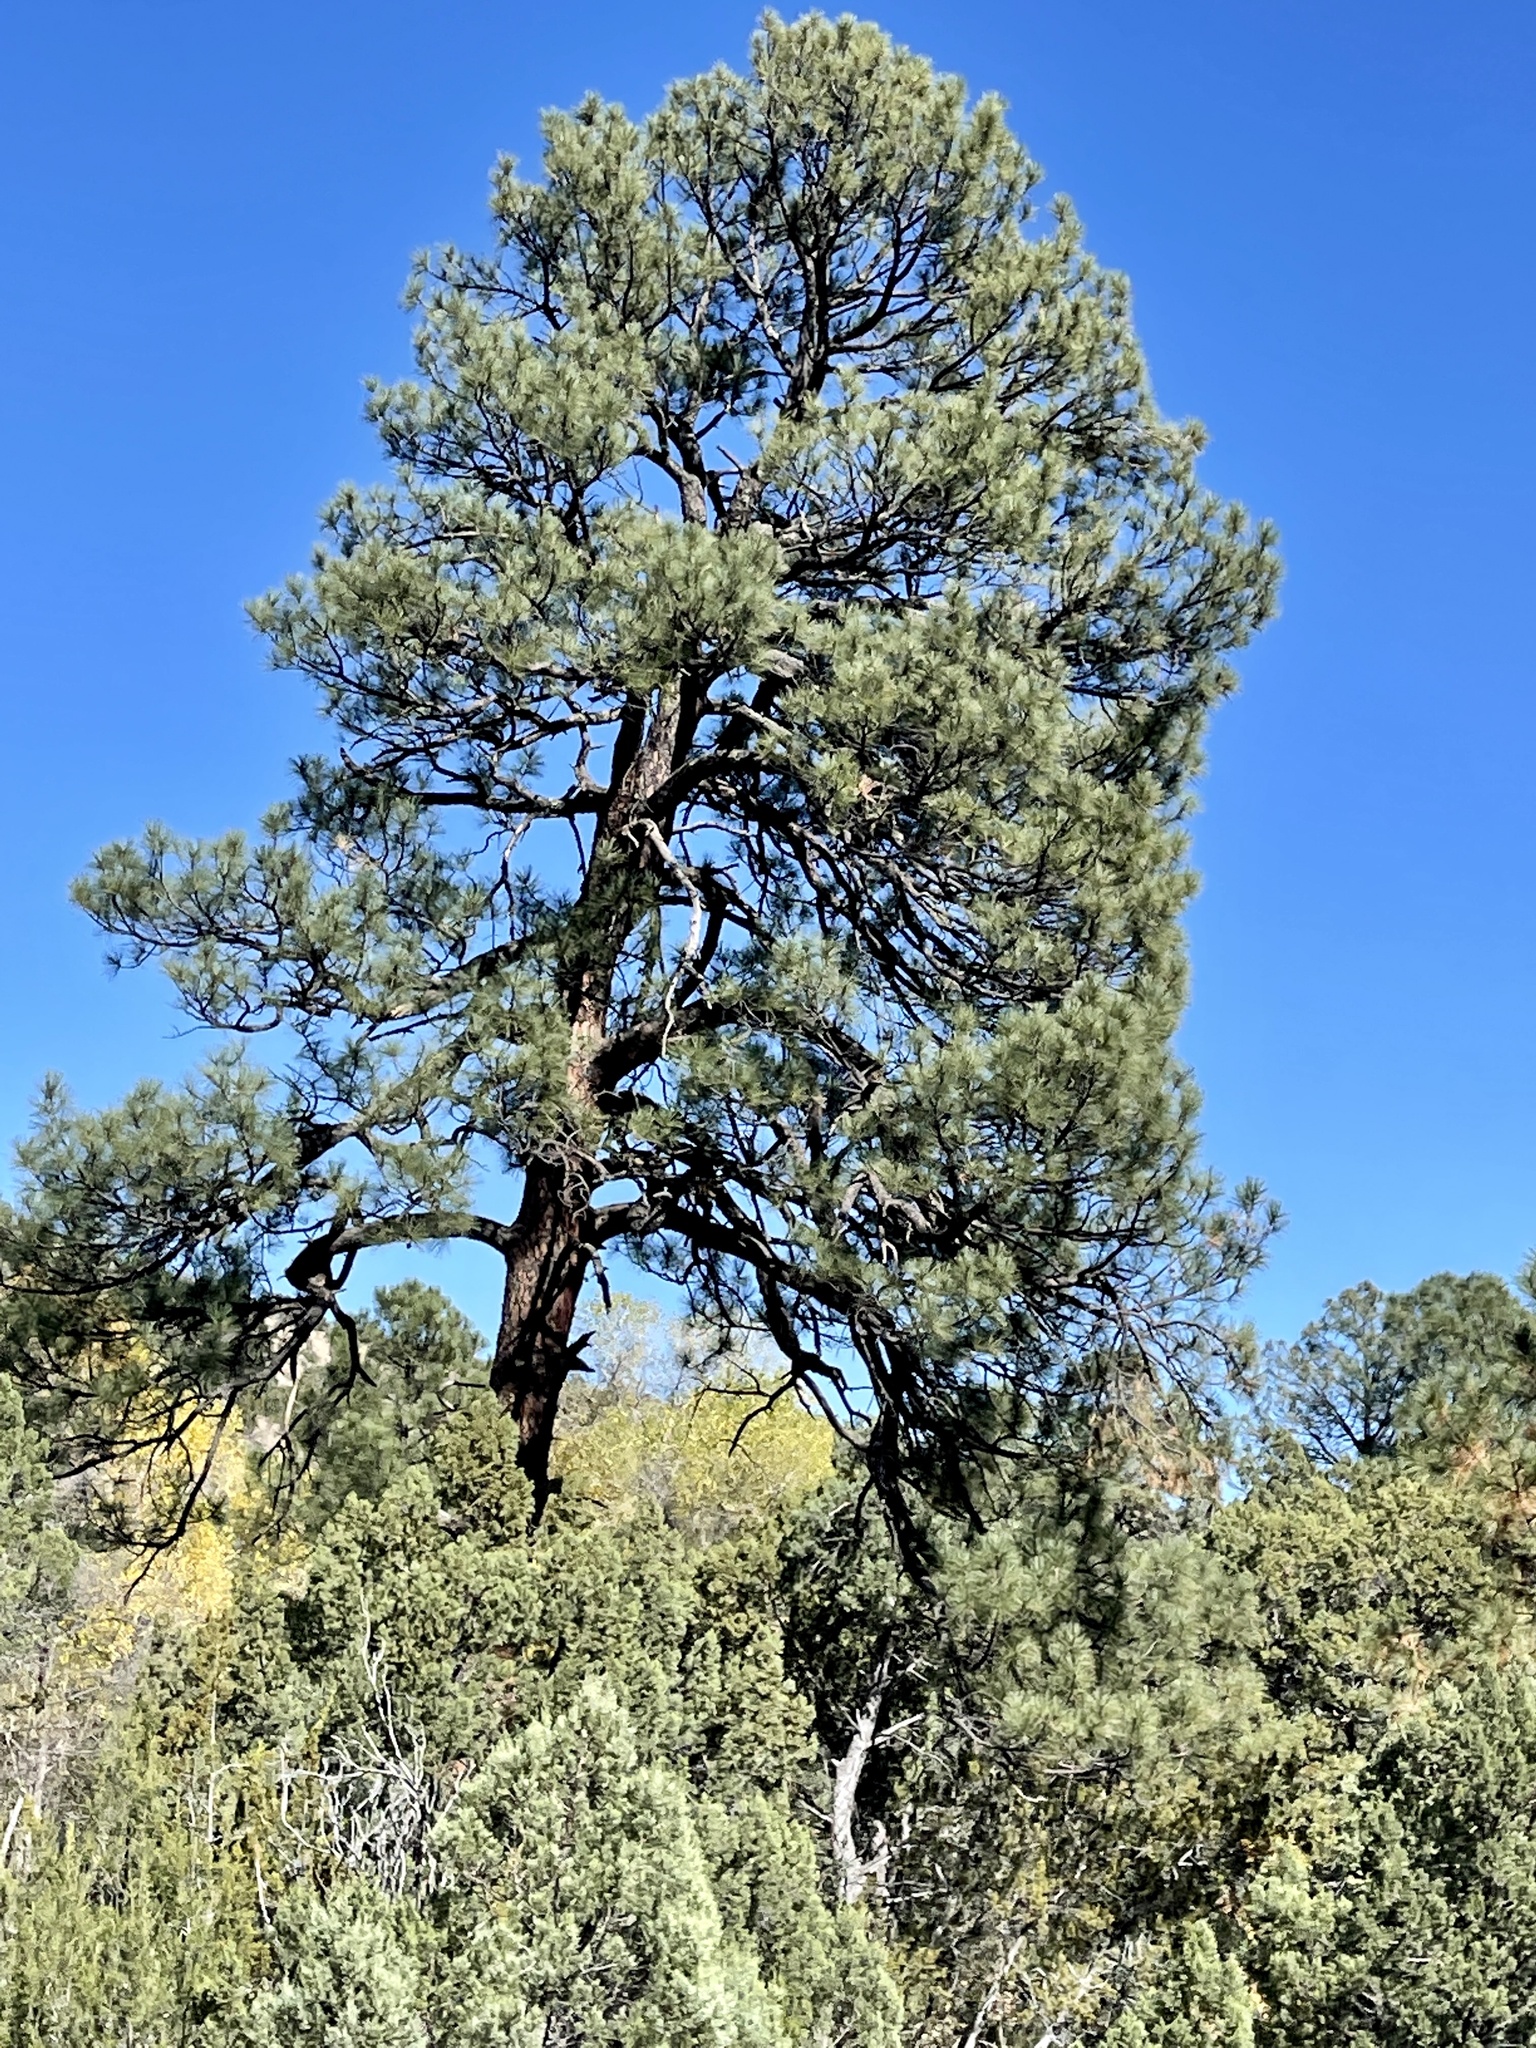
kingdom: Plantae
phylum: Tracheophyta
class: Pinopsida
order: Pinales
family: Pinaceae
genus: Pinus
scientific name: Pinus ponderosa
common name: Western yellow-pine
